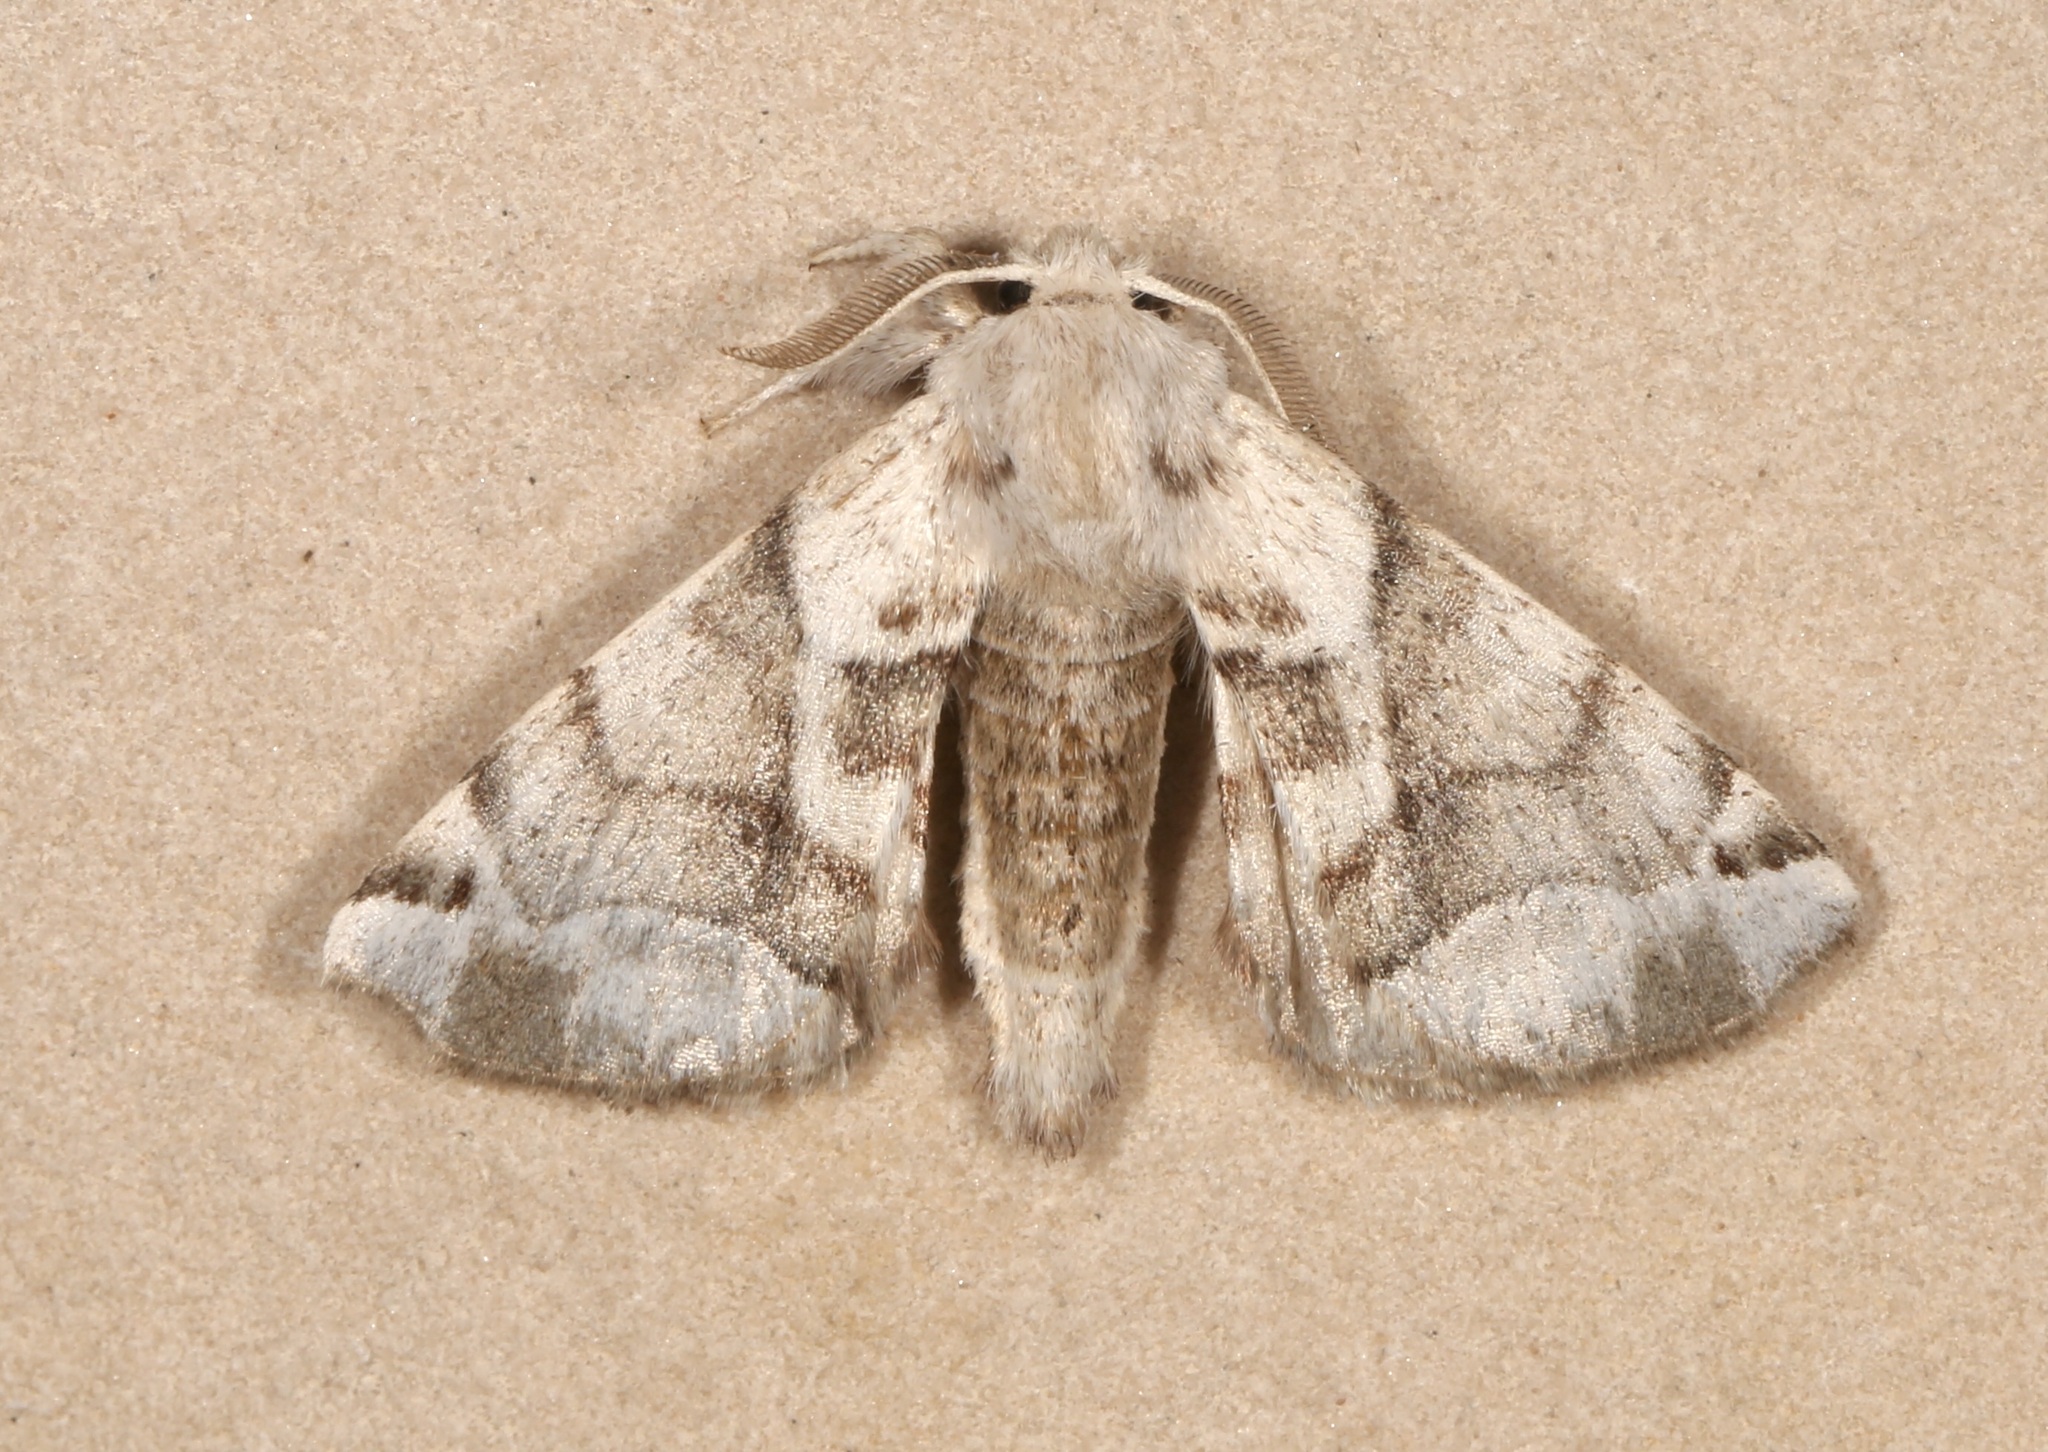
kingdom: Animalia
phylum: Arthropoda
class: Insecta
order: Lepidoptera
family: Apatelodidae
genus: Hygrochroa
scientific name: Hygrochroa Apatelodes pudefacta
